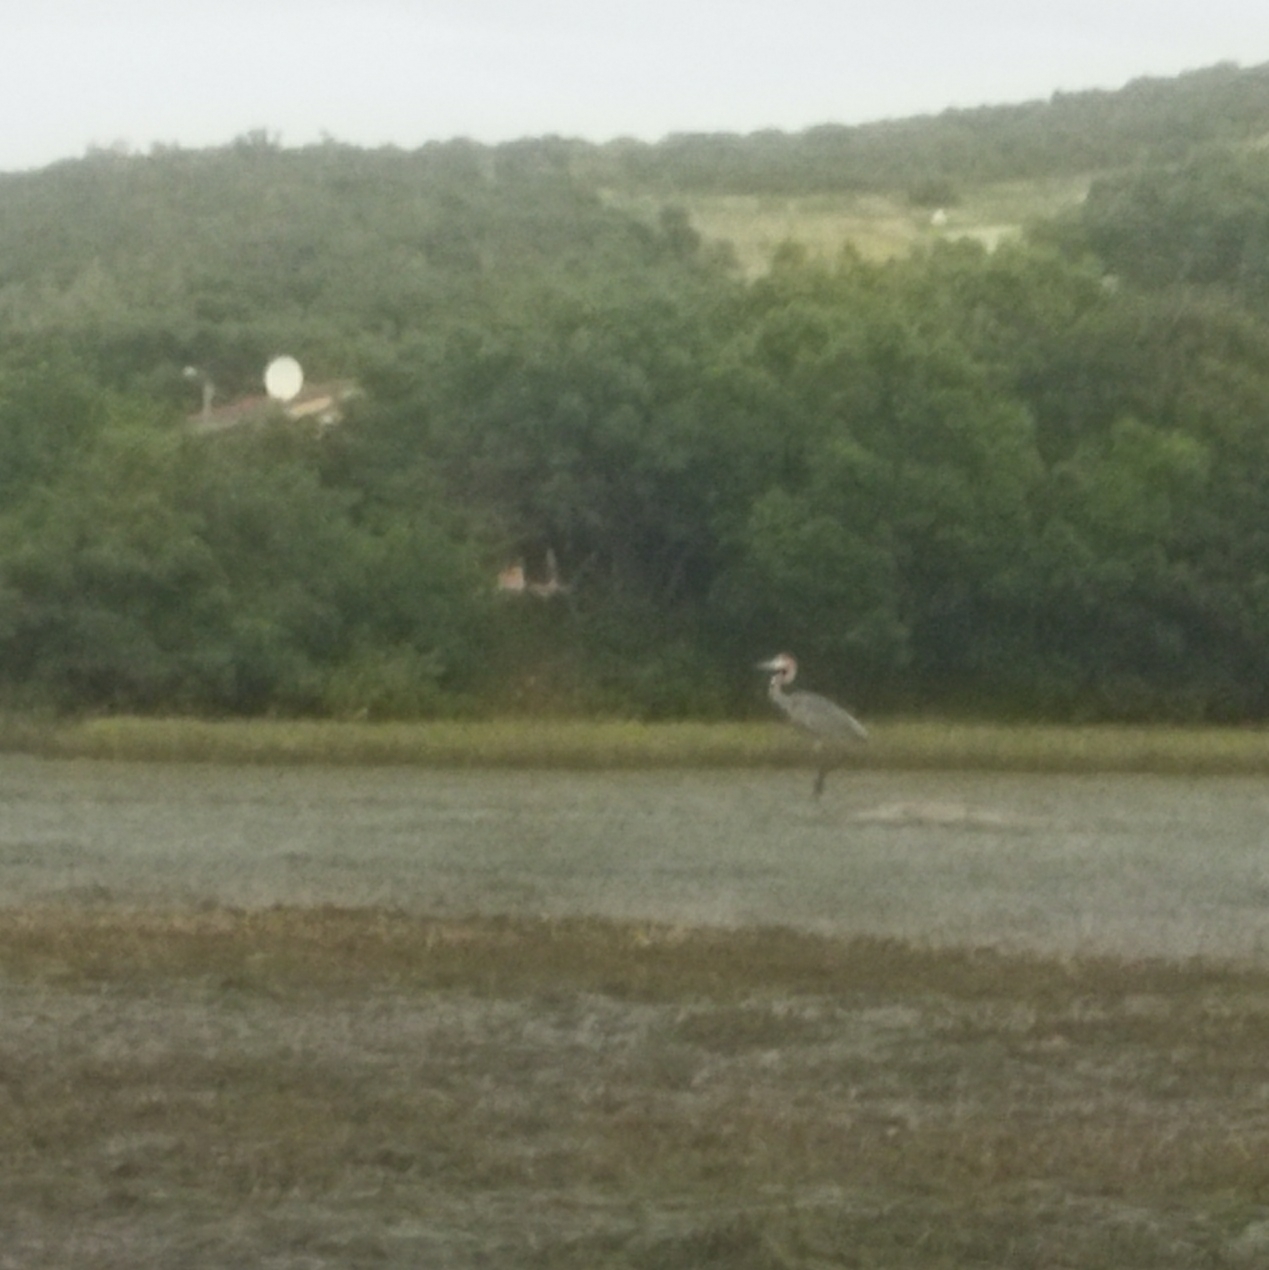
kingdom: Animalia
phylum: Chordata
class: Aves
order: Pelecaniformes
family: Ardeidae
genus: Ardea
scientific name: Ardea goliath
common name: Goliath heron
